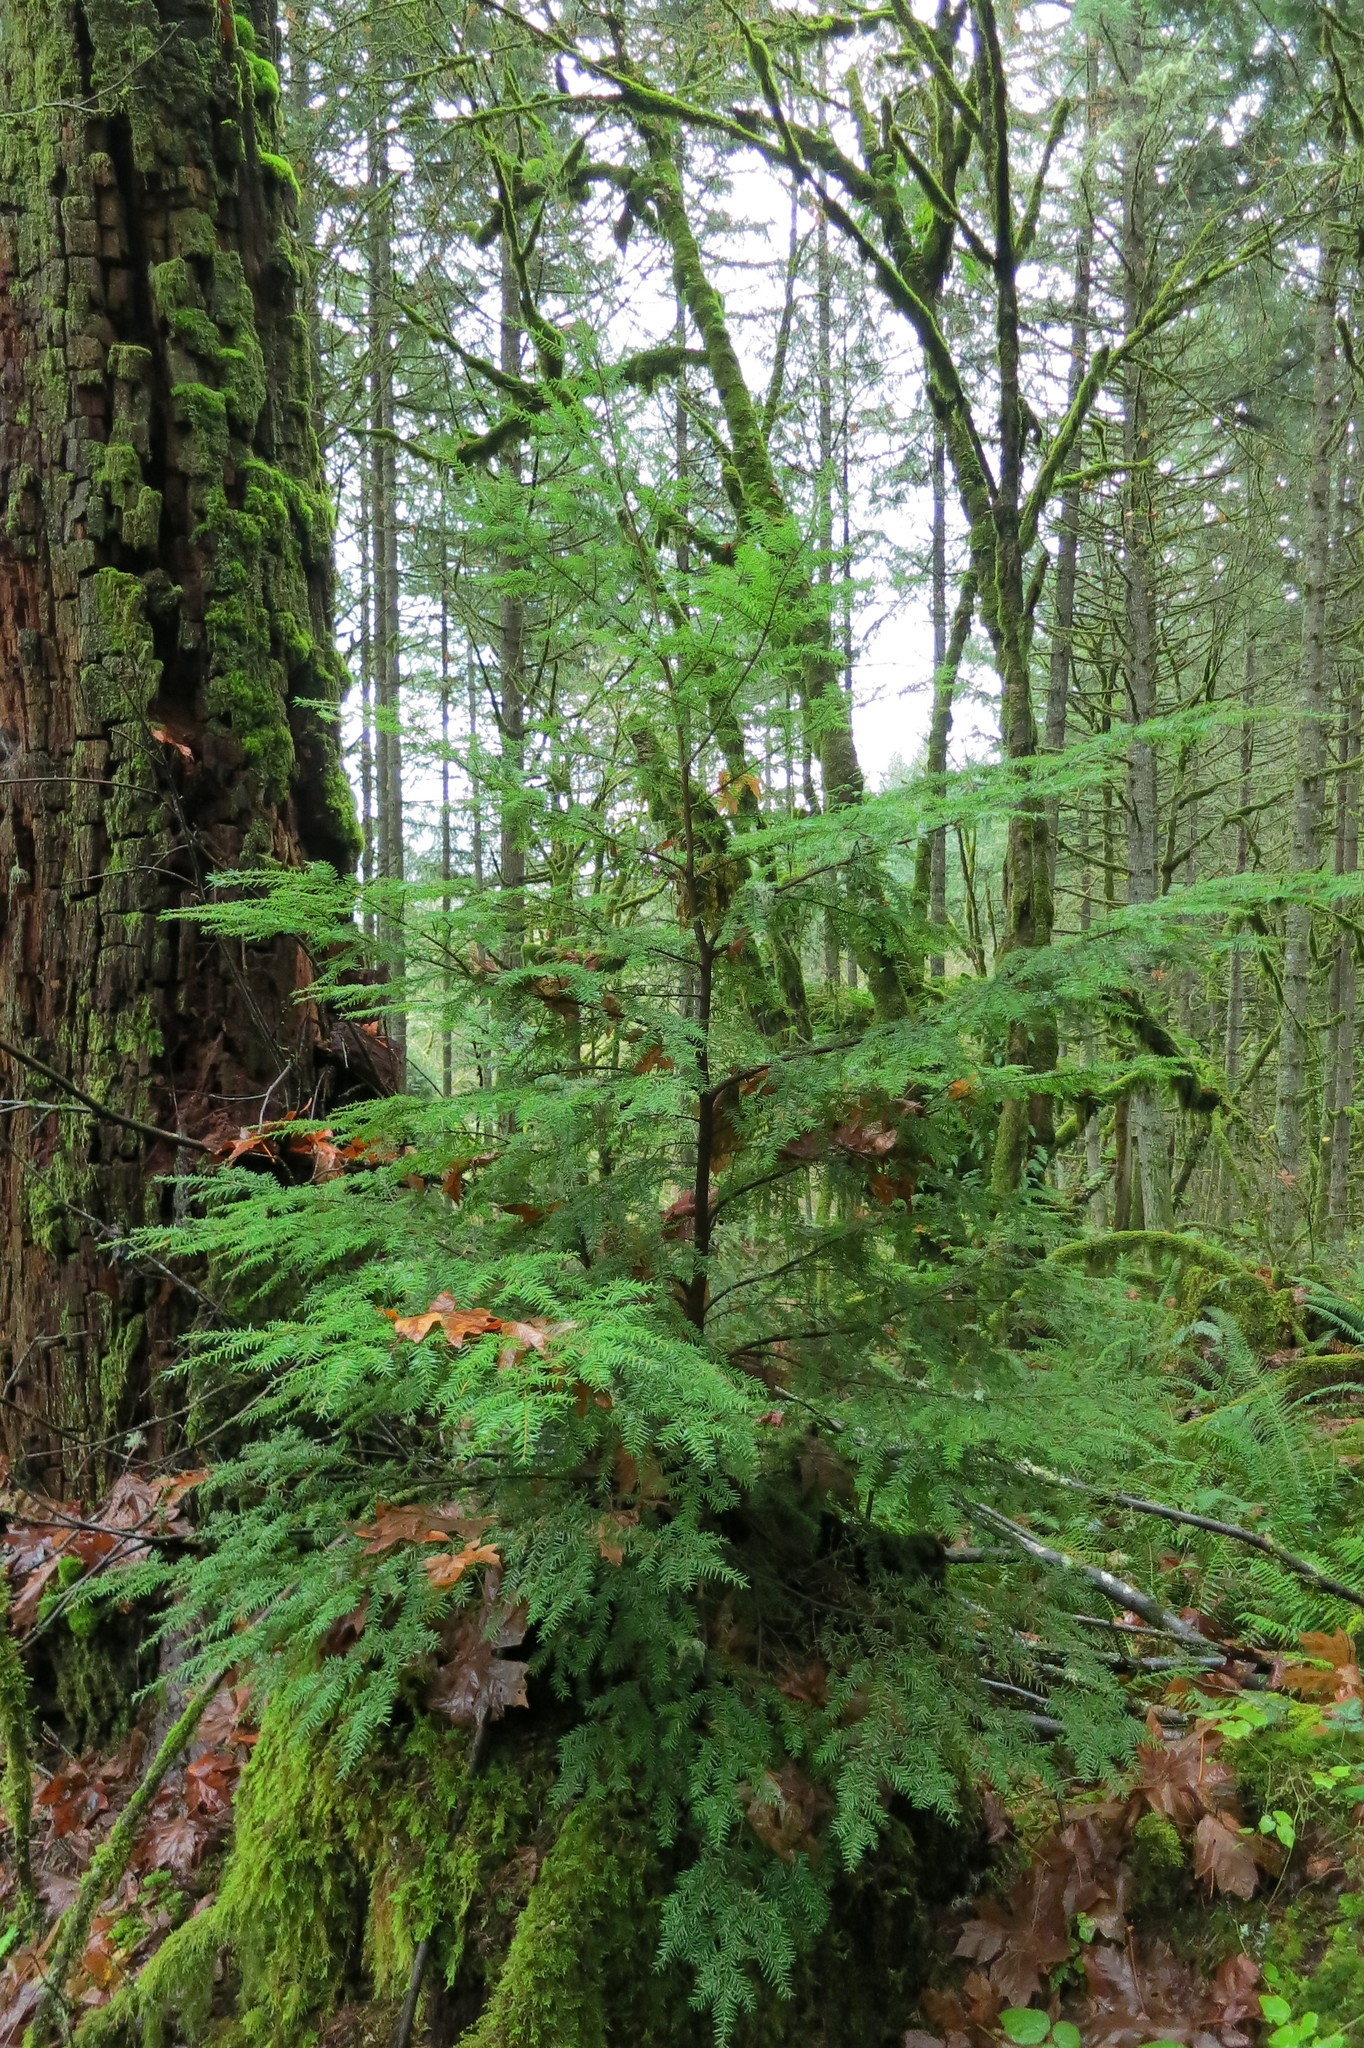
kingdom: Plantae
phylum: Tracheophyta
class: Pinopsida
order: Pinales
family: Pinaceae
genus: Tsuga
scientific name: Tsuga heterophylla
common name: Western hemlock
